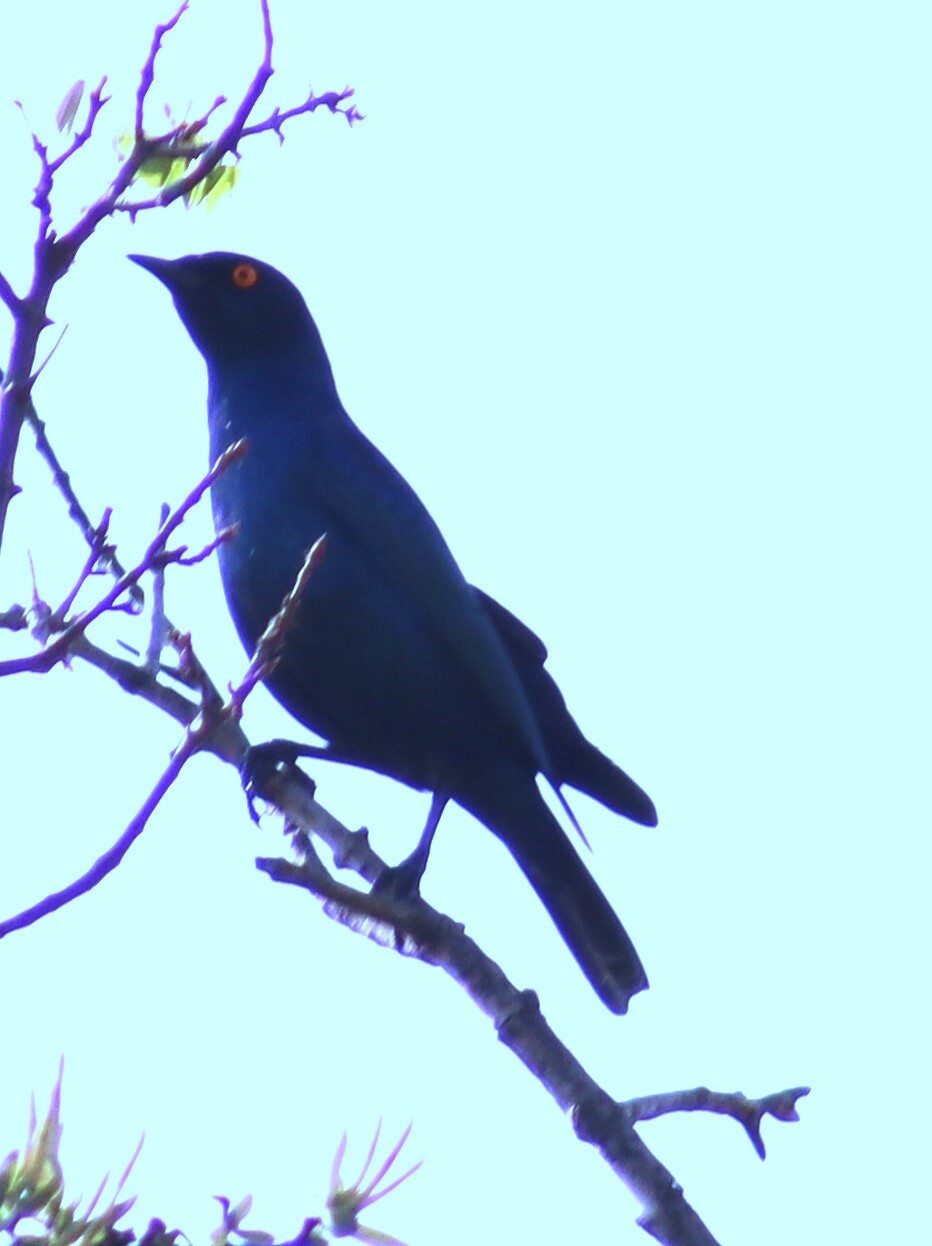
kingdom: Animalia
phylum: Chordata
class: Aves
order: Passeriformes
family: Sturnidae
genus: Lamprotornis
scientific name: Lamprotornis nitens
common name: Cape starling
